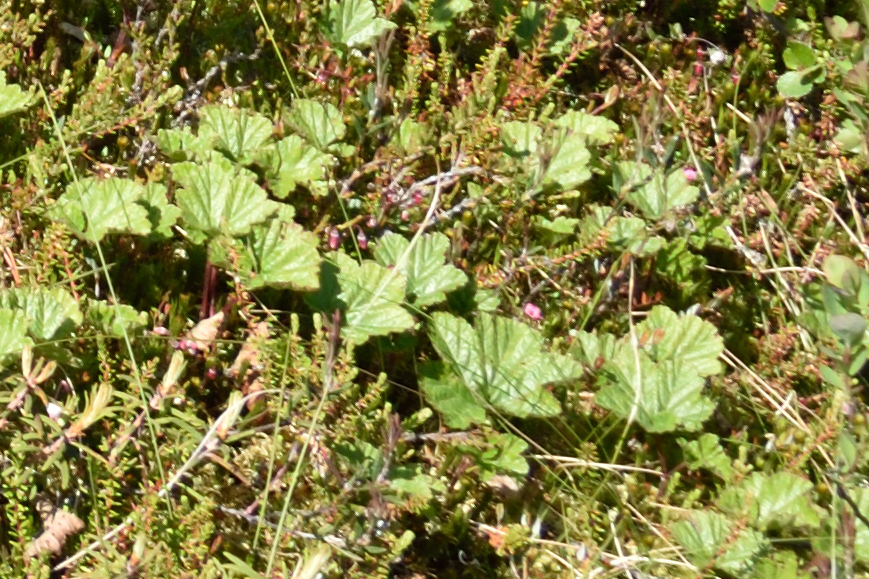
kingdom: Plantae
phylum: Tracheophyta
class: Magnoliopsida
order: Rosales
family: Rosaceae
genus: Rubus
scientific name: Rubus chamaemorus
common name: Cloudberry
